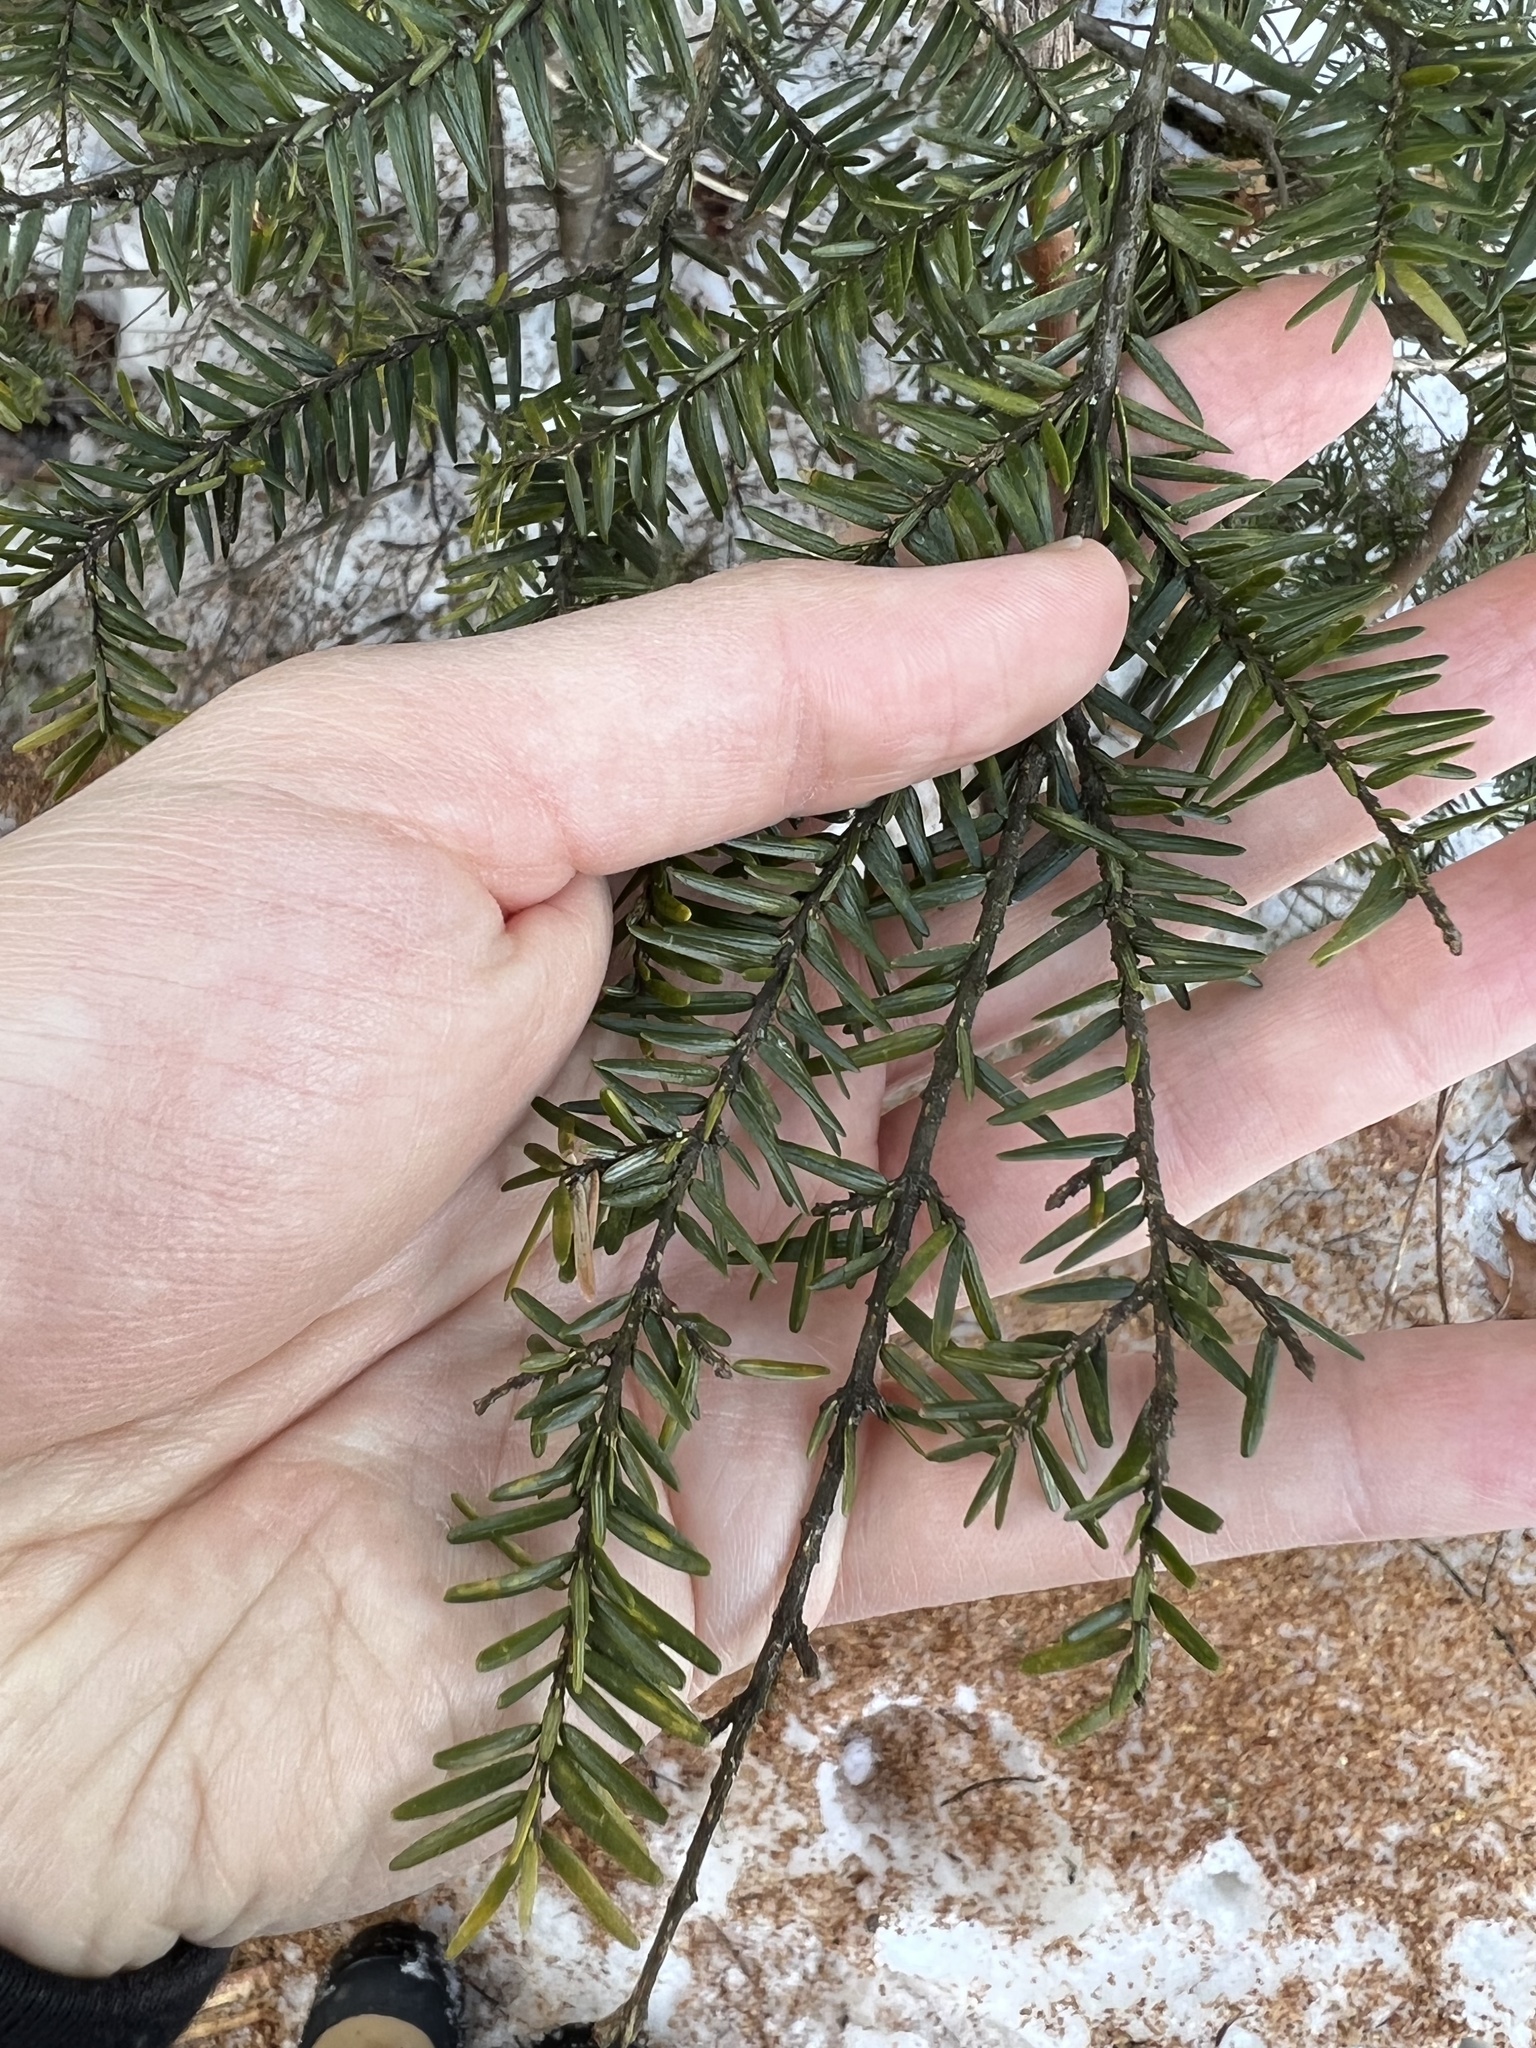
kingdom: Animalia
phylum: Arthropoda
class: Insecta
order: Hemiptera
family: Adelgidae
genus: Adelges
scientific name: Adelges tsugae
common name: Hemlock woolly adelgid
